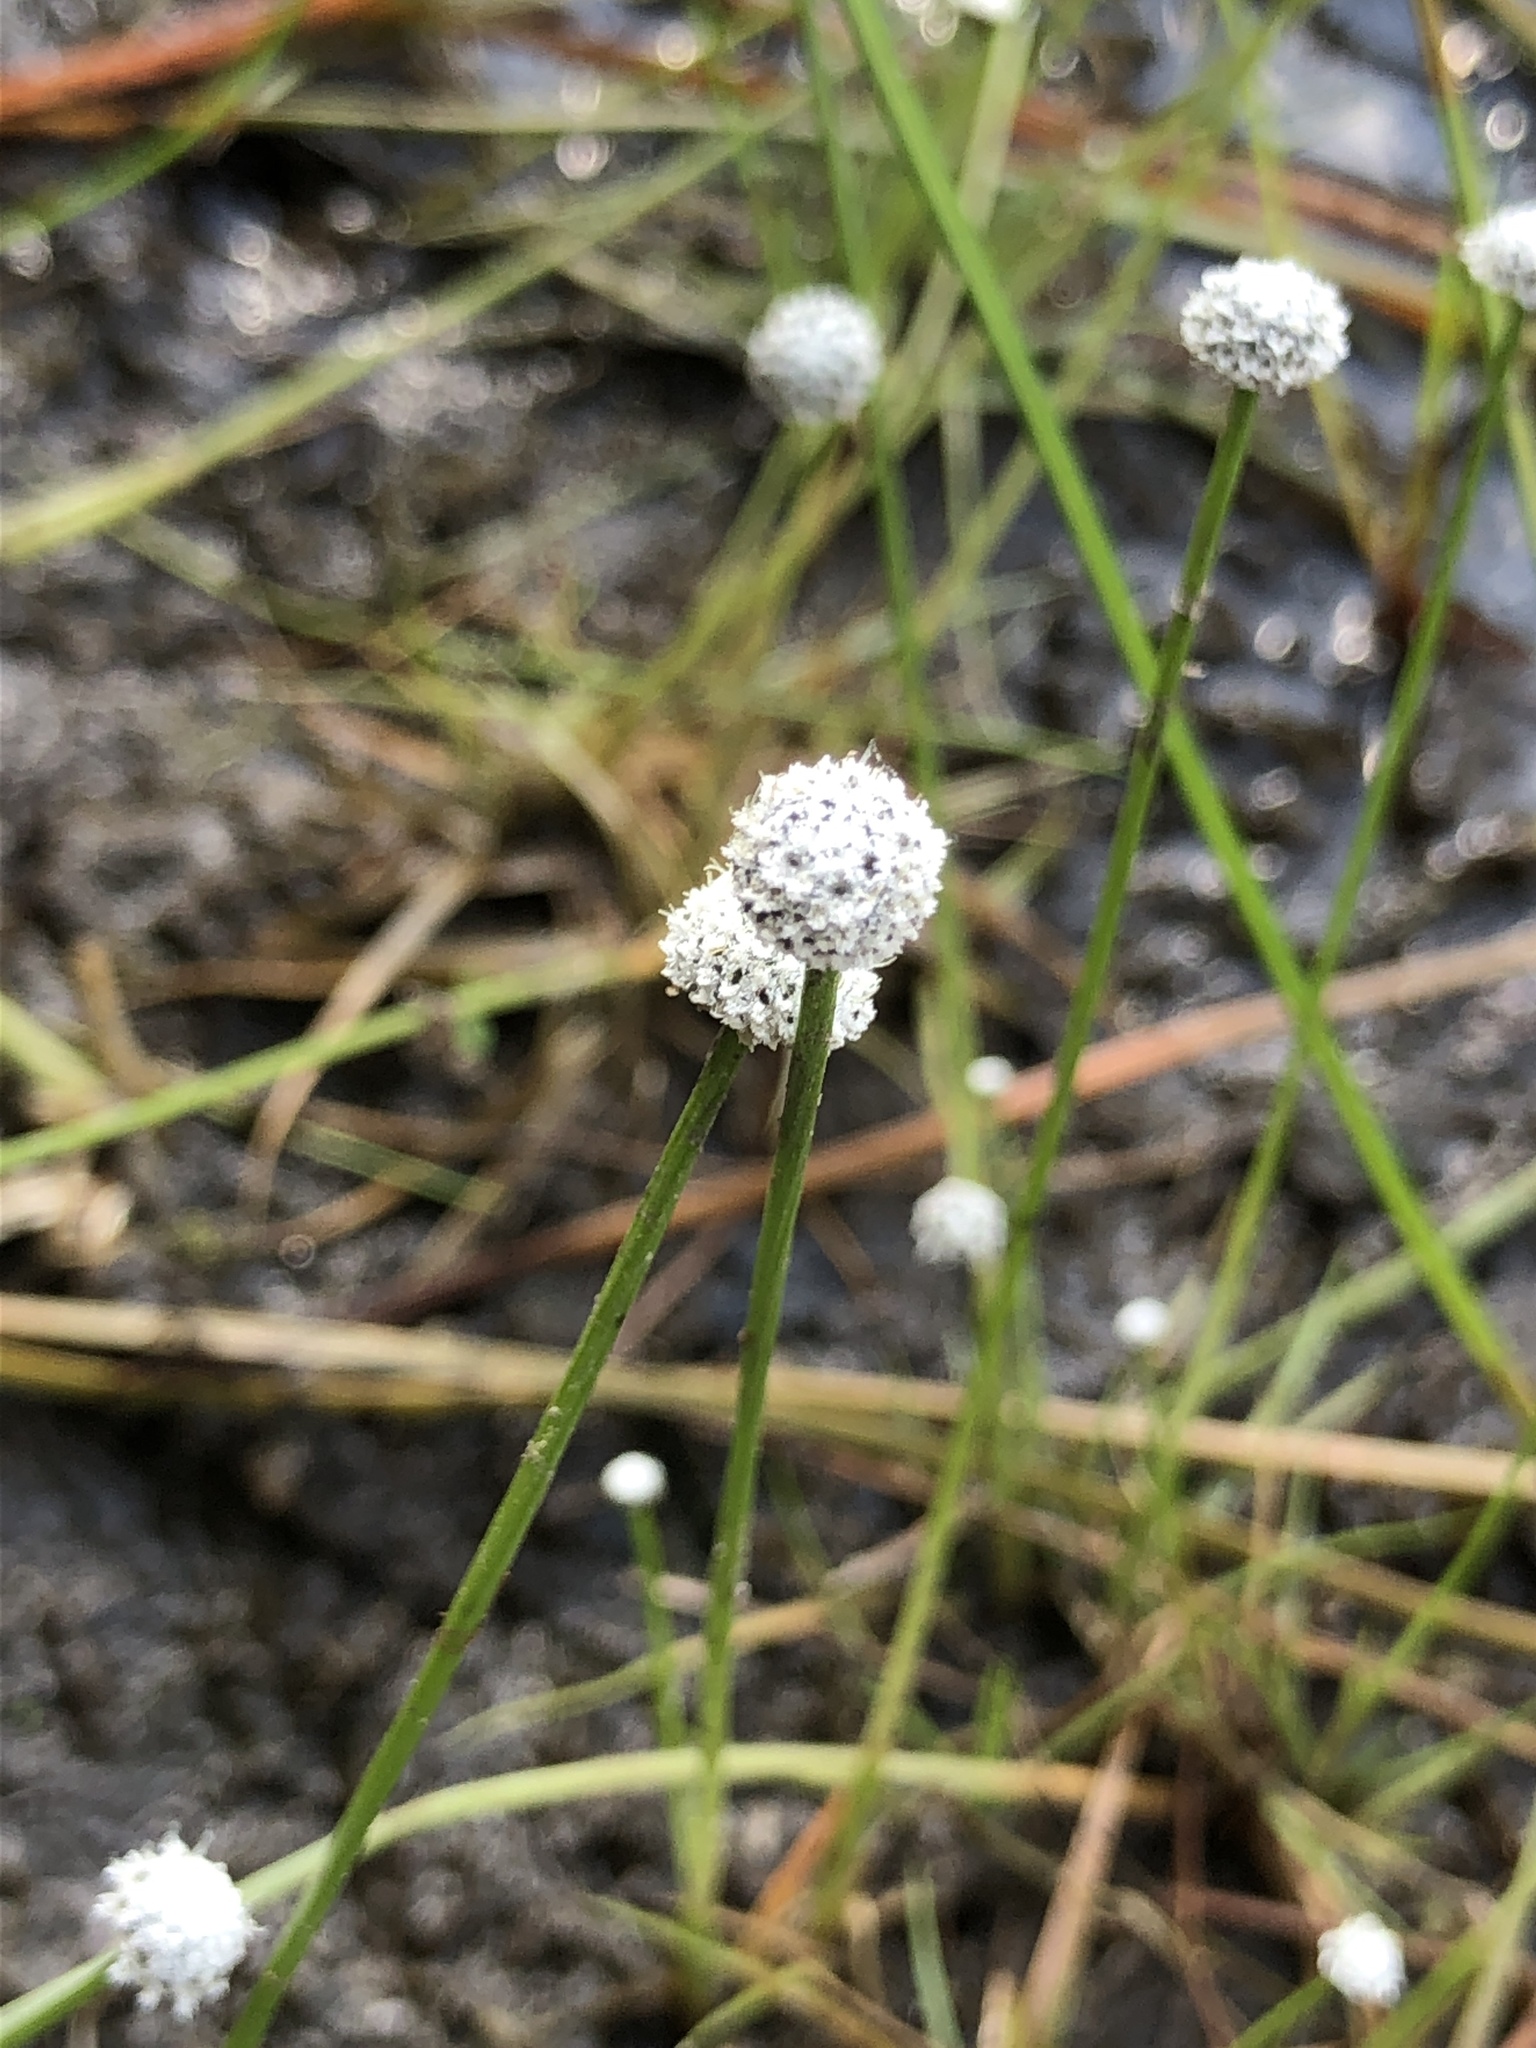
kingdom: Plantae
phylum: Tracheophyta
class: Liliopsida
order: Poales
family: Eriocaulaceae
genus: Eriocaulon
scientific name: Eriocaulon aquaticum
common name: Pipewort
